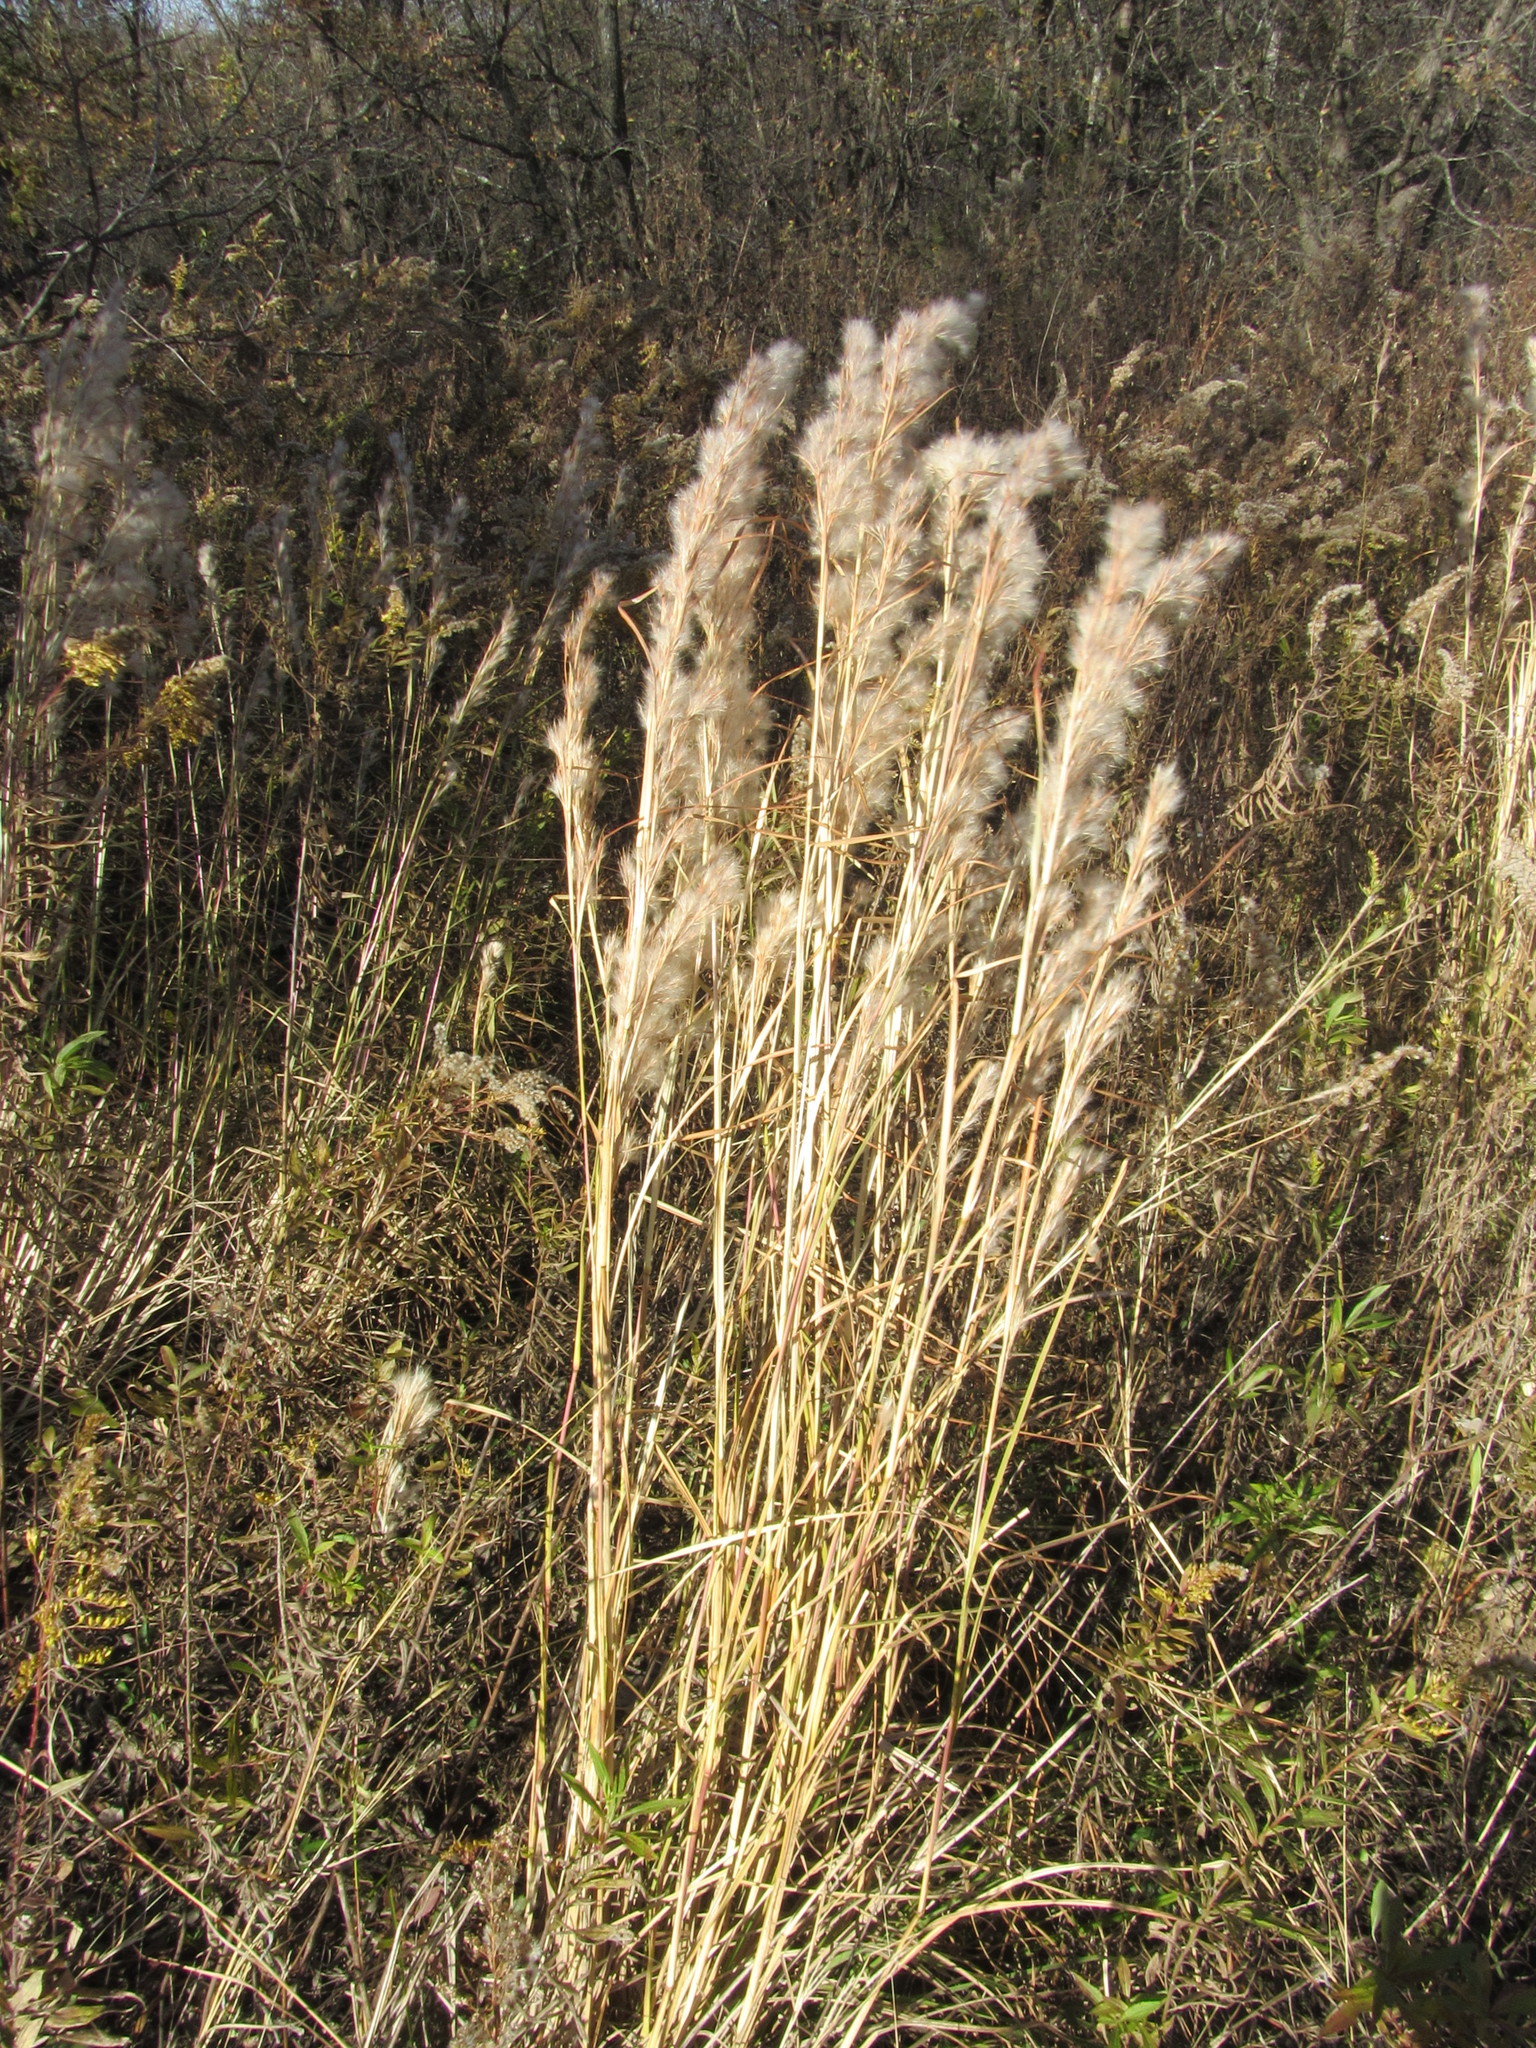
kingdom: Plantae
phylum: Tracheophyta
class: Liliopsida
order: Poales
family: Poaceae
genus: Andropogon
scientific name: Andropogon tenuispatheus
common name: Bushy bluestem
